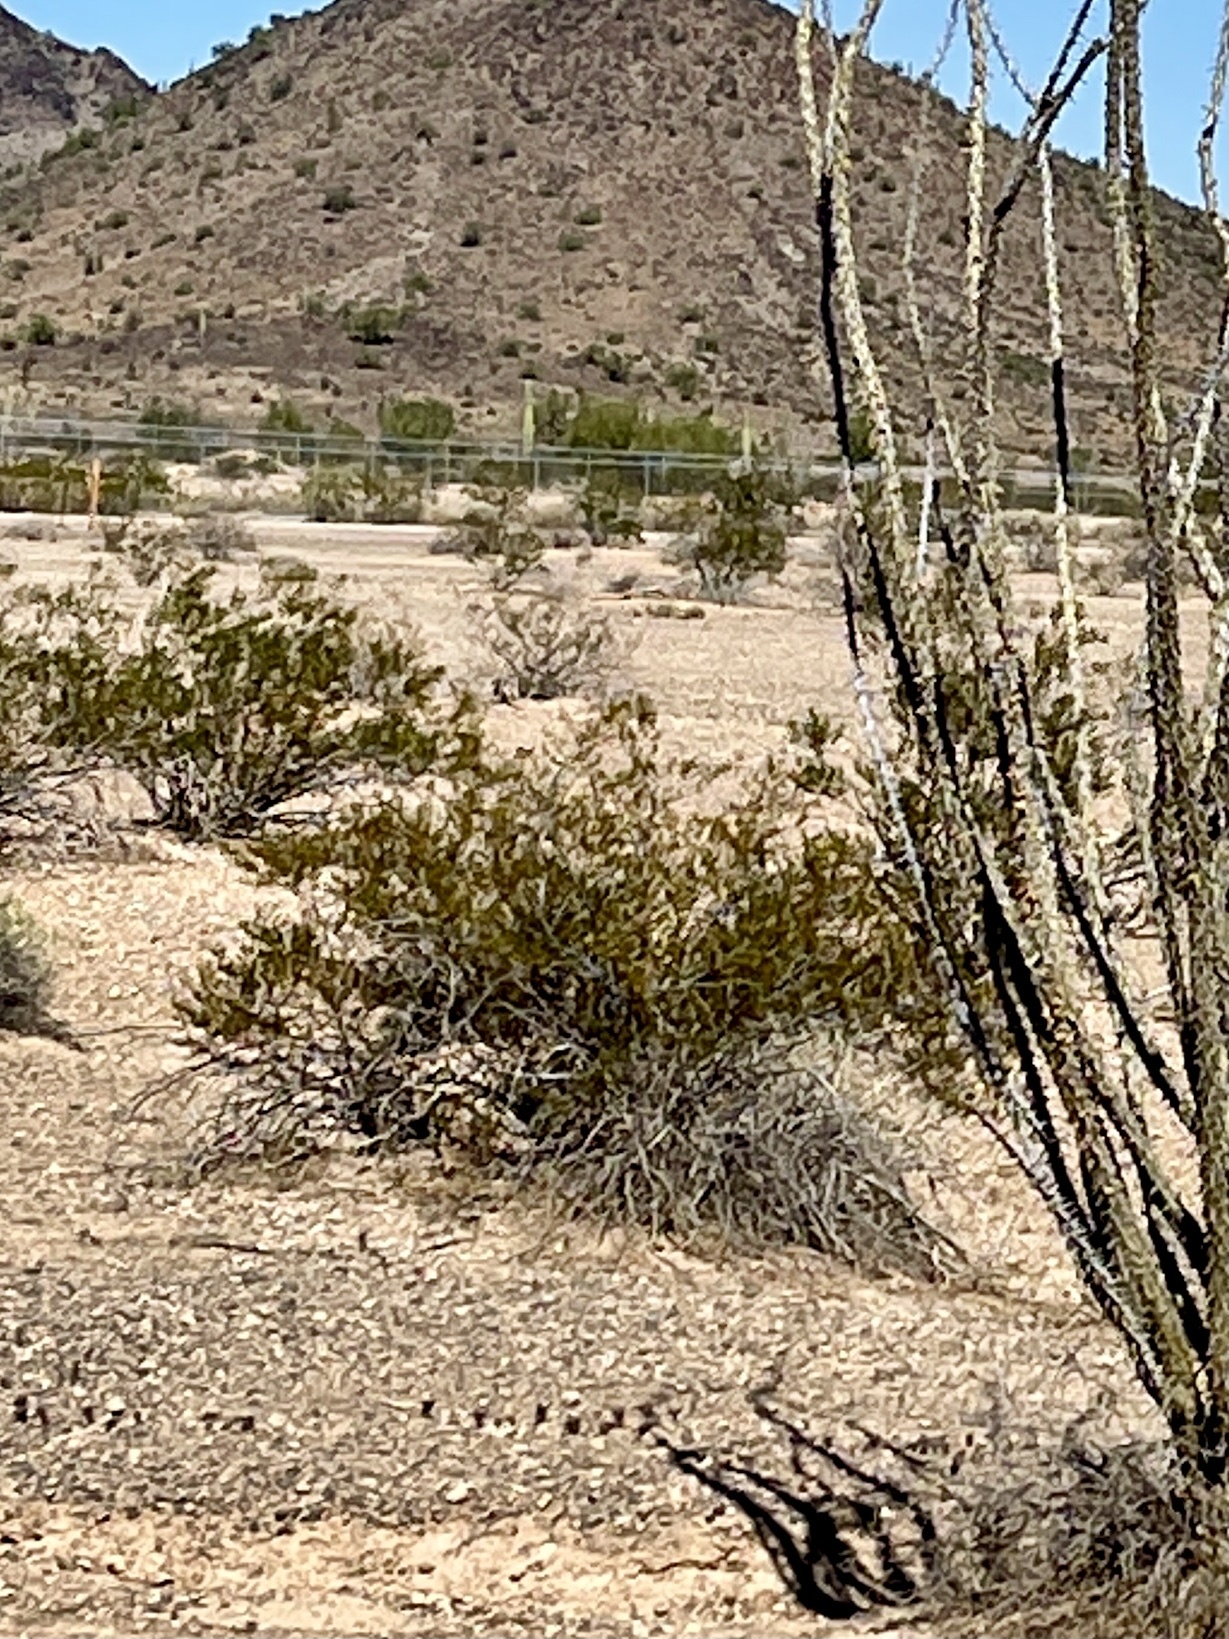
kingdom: Plantae
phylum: Tracheophyta
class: Magnoliopsida
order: Zygophyllales
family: Zygophyllaceae
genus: Larrea
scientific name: Larrea tridentata
